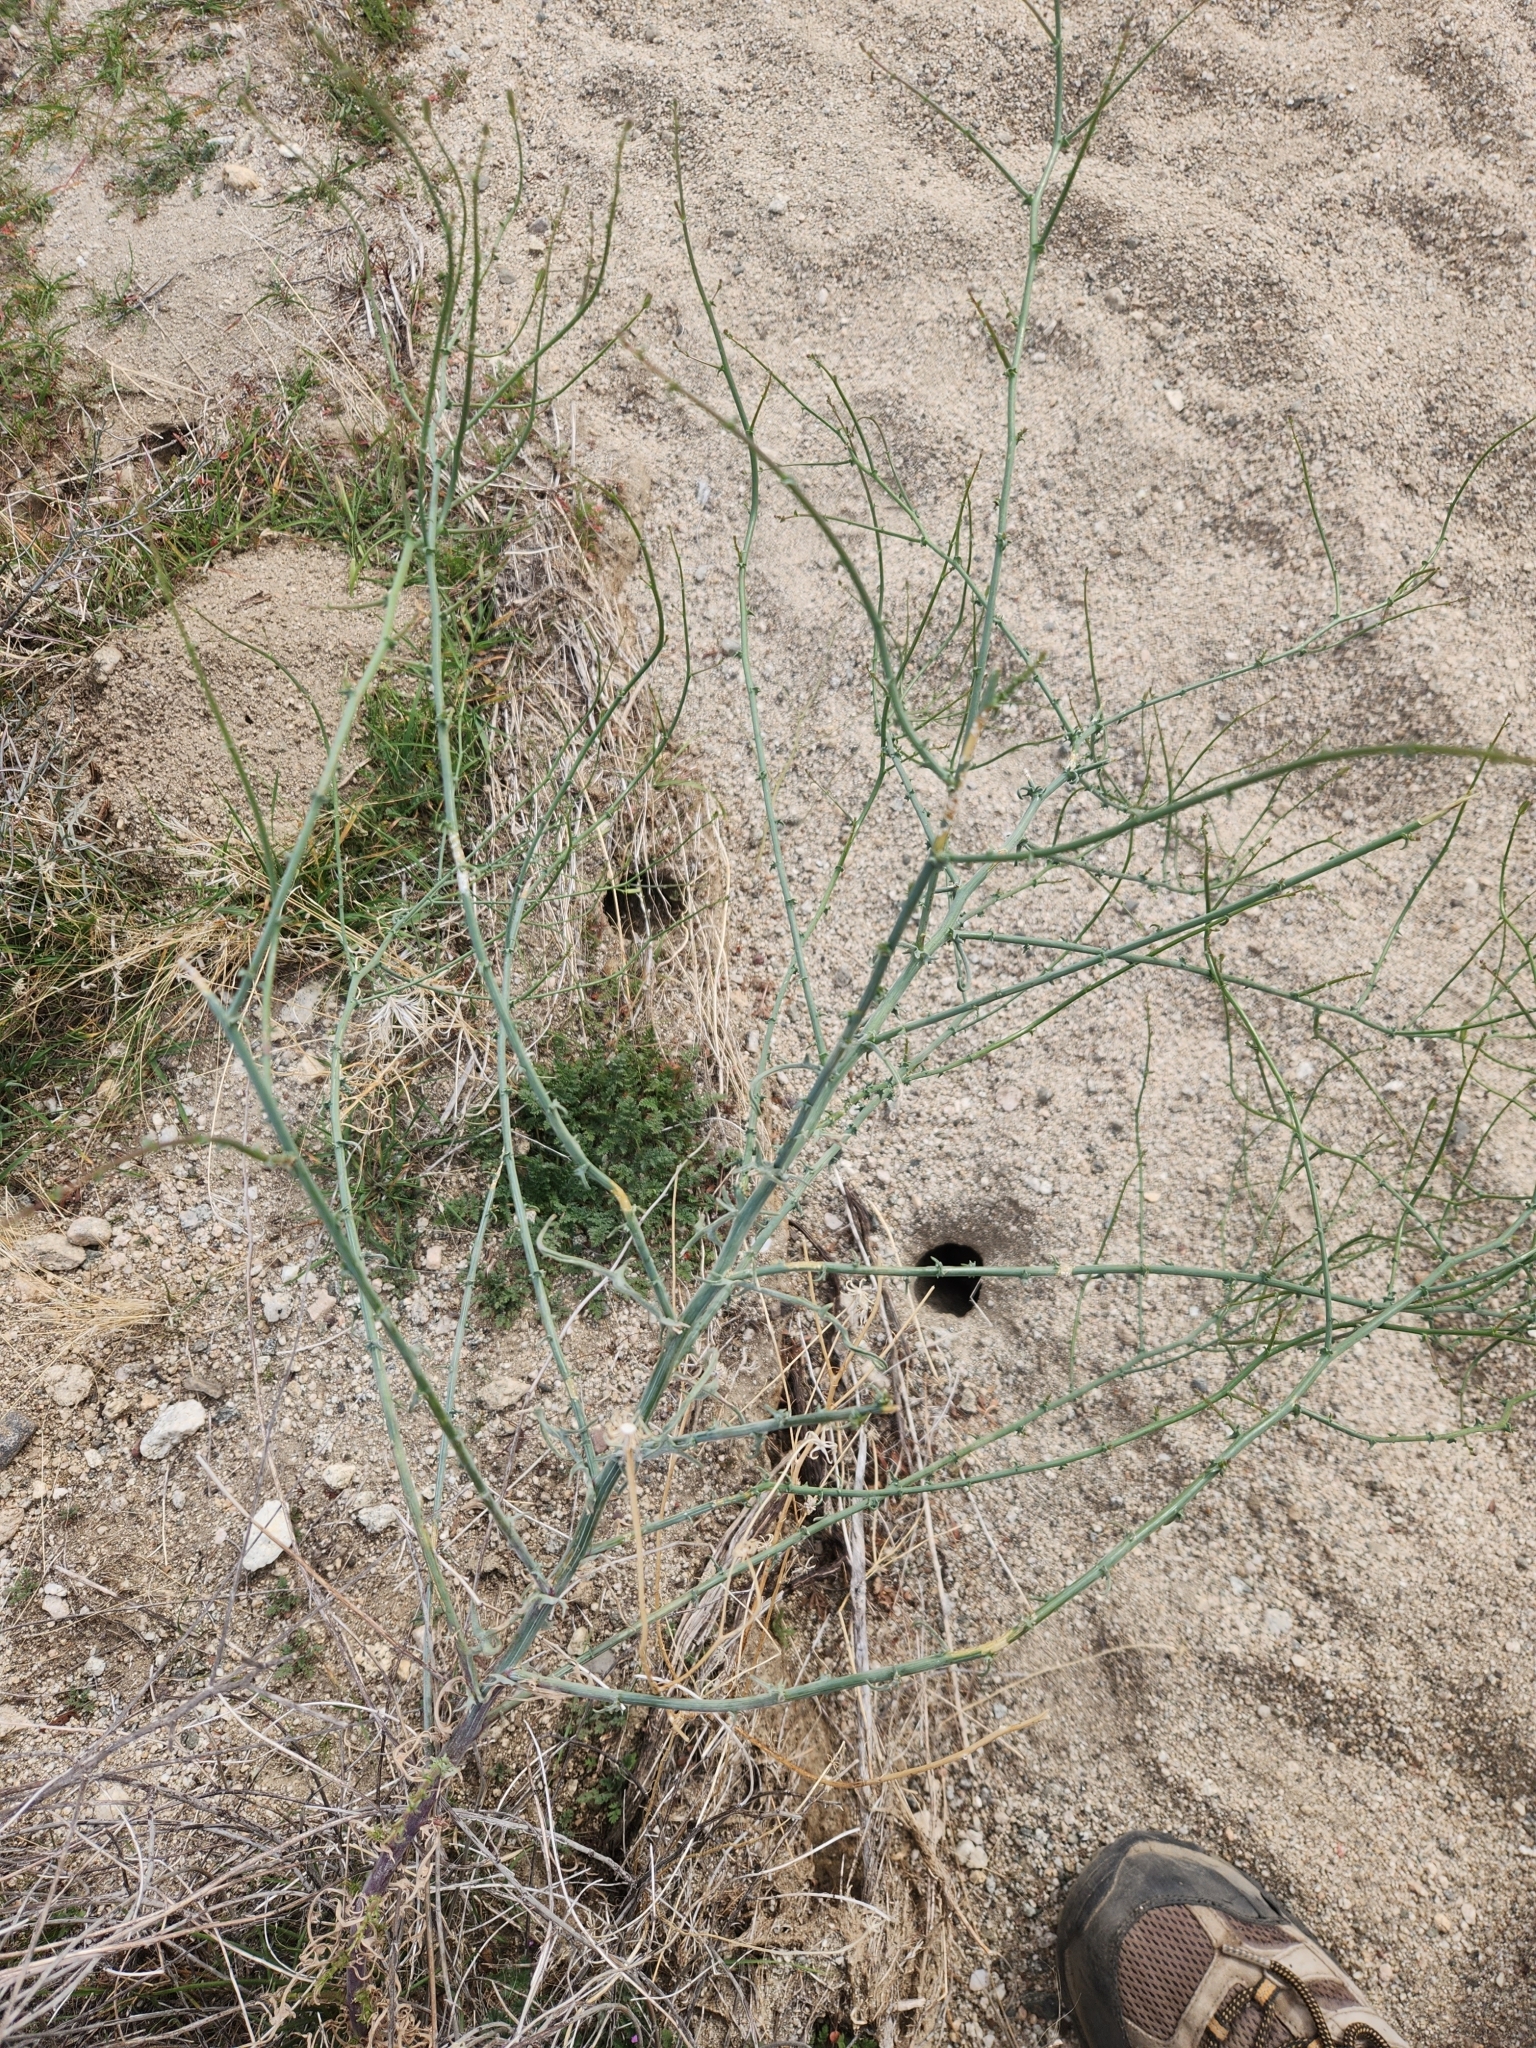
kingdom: Plantae
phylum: Tracheophyta
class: Magnoliopsida
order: Asterales
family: Asteraceae
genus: Stephanomeria
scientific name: Stephanomeria exigua
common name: Small wirelettuce
